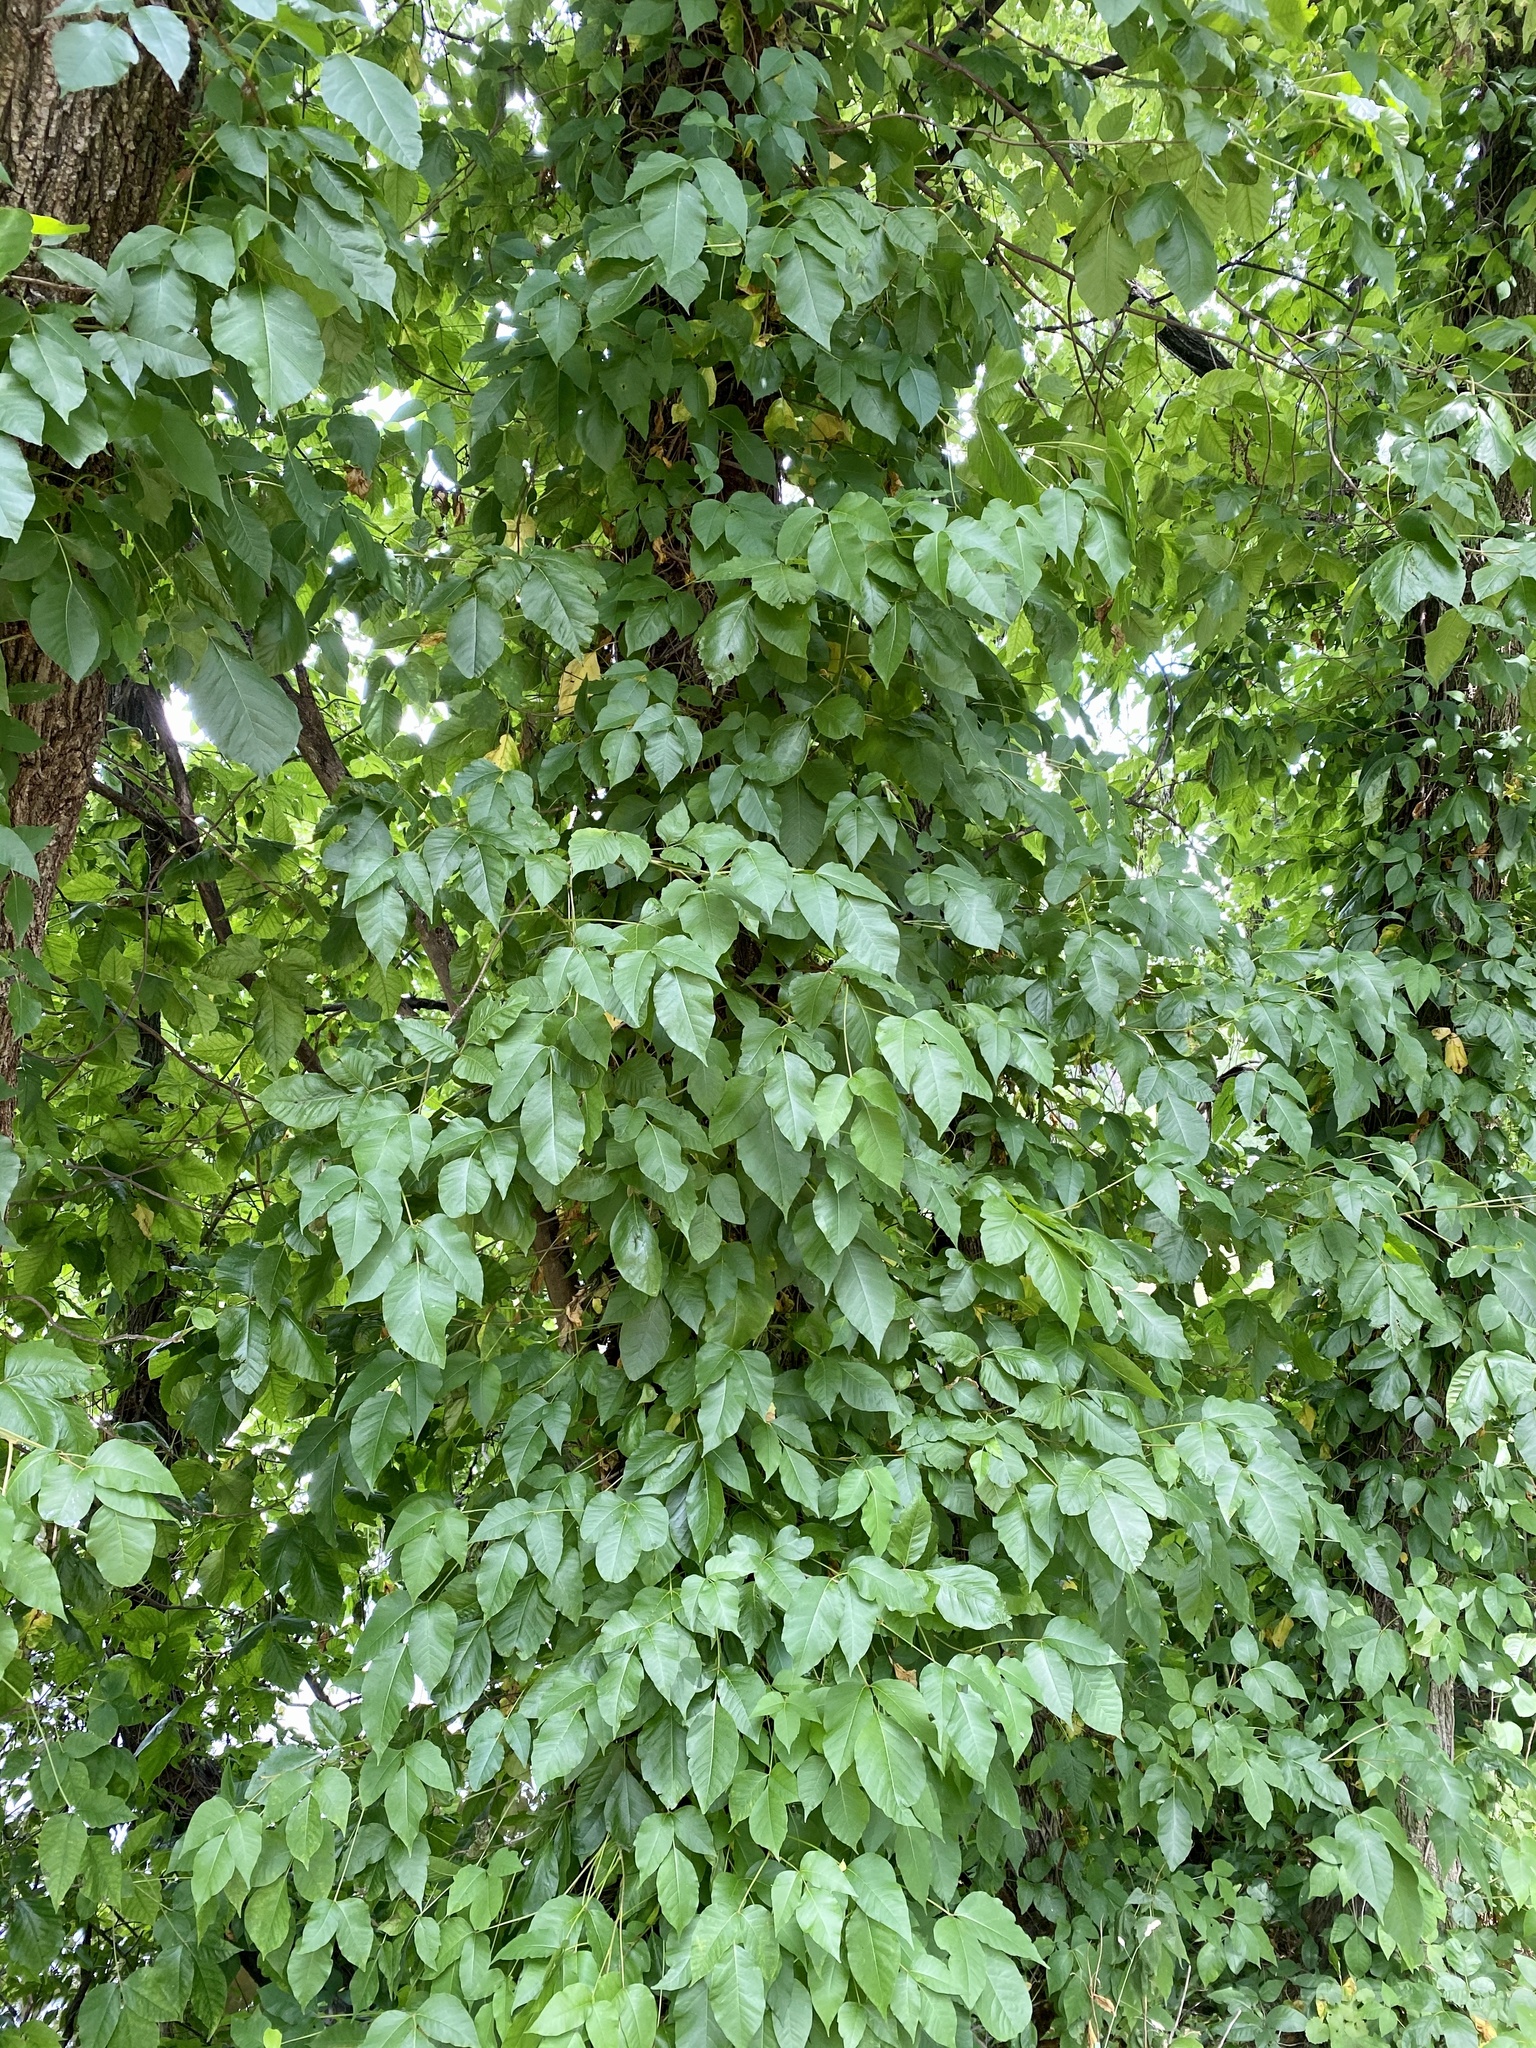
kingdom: Plantae
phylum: Tracheophyta
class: Magnoliopsida
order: Sapindales
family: Anacardiaceae
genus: Toxicodendron
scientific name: Toxicodendron radicans
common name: Poison ivy
